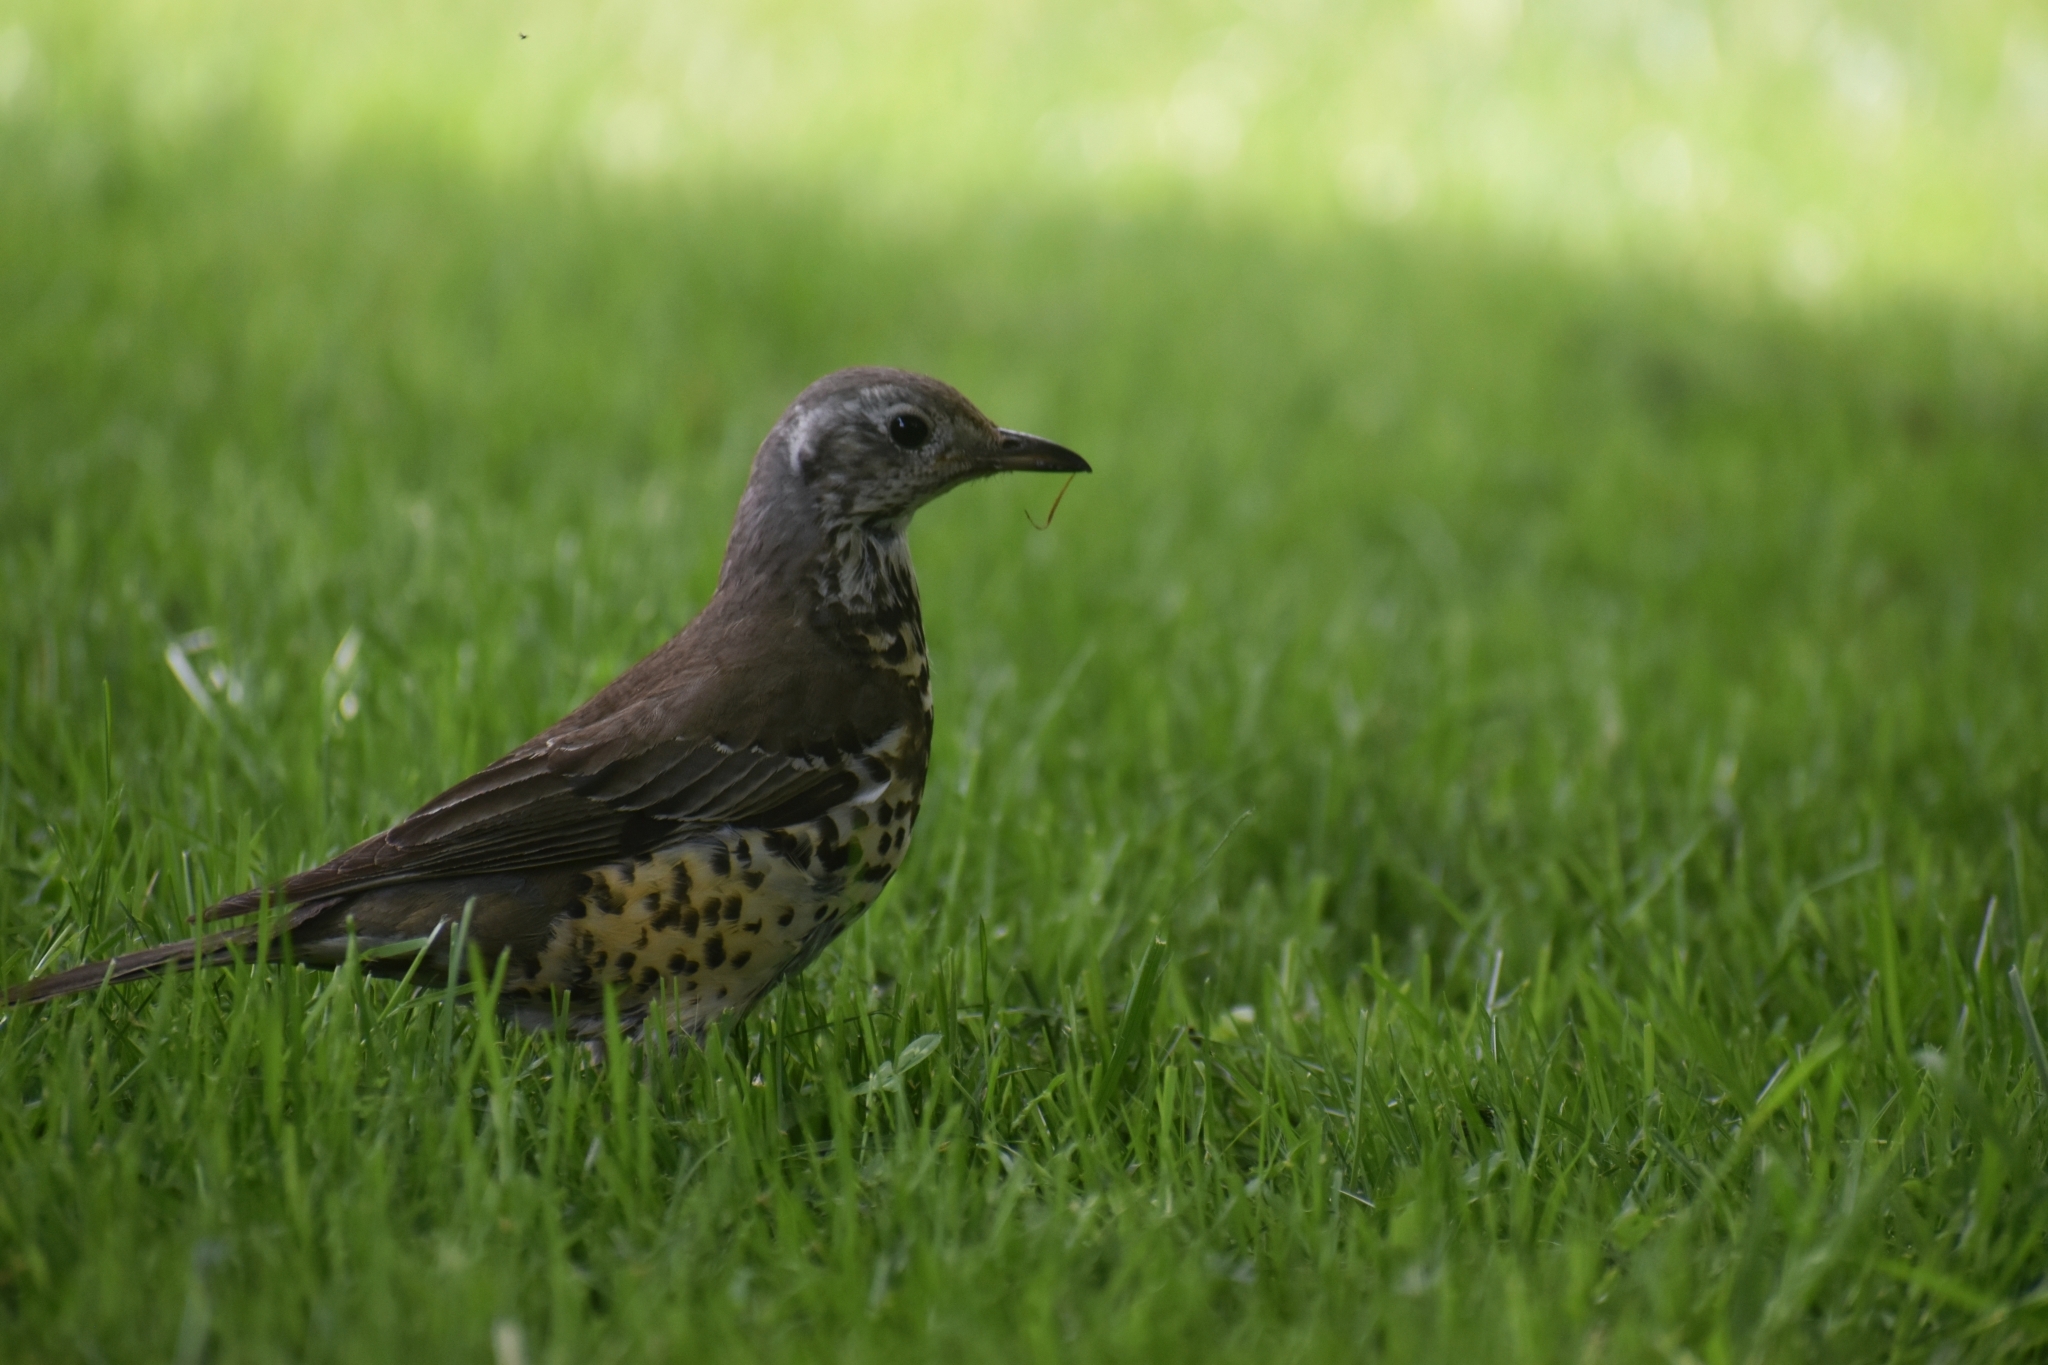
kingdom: Animalia
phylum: Chordata
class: Aves
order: Passeriformes
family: Turdidae
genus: Turdus
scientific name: Turdus viscivorus
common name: Mistle thrush
